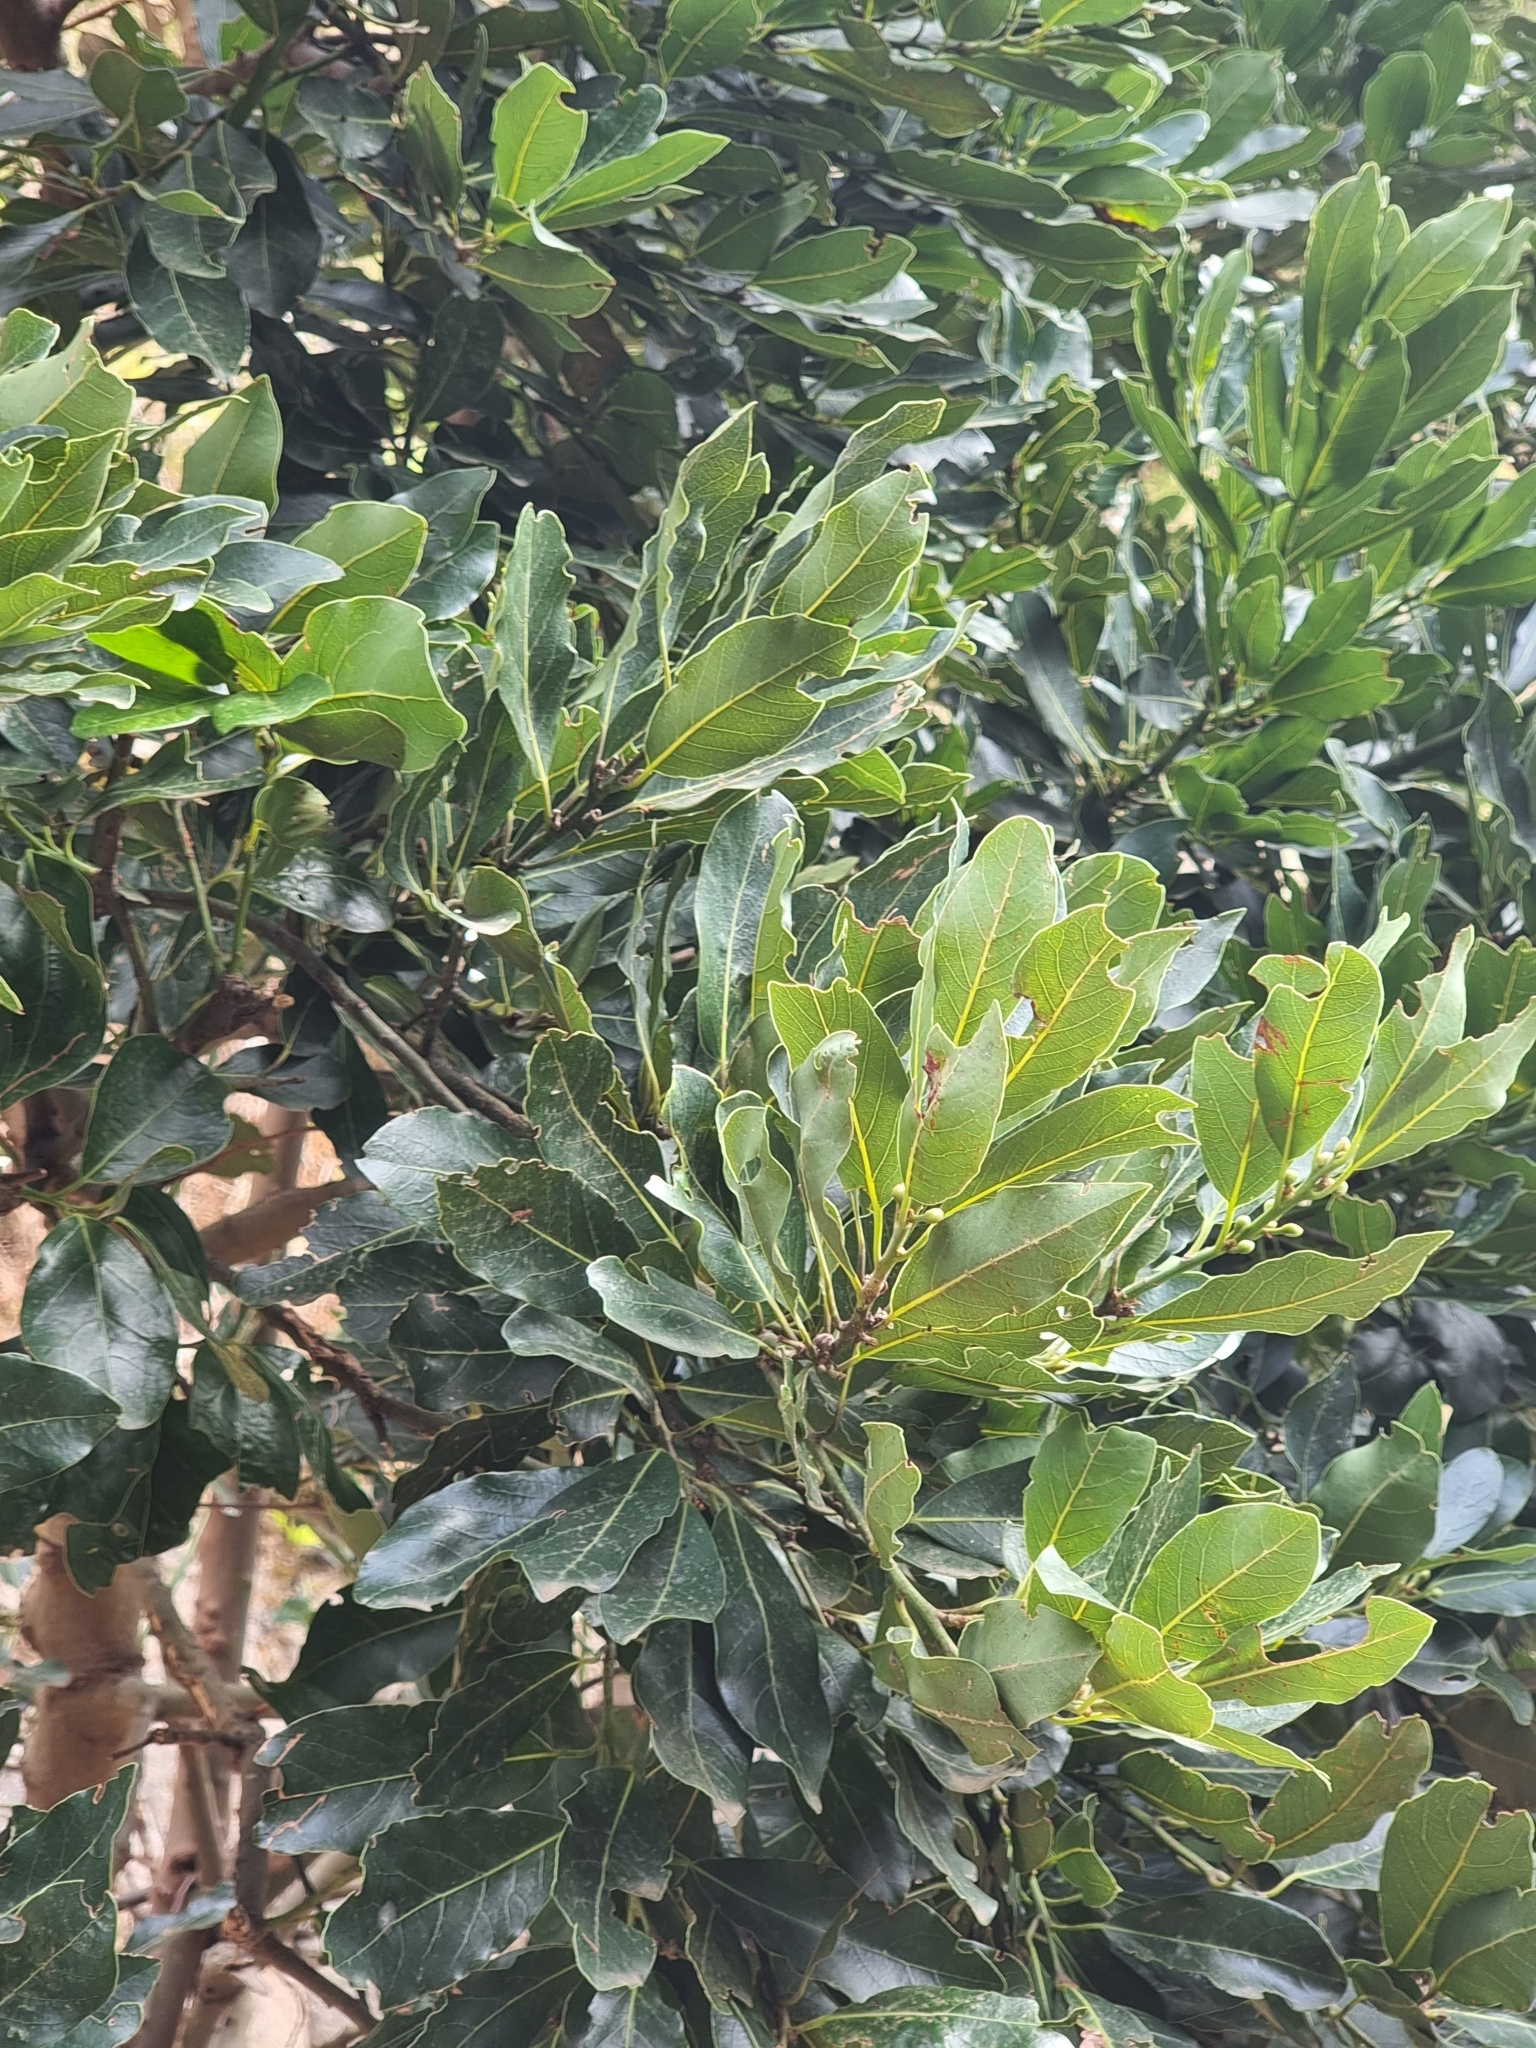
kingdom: Plantae
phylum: Tracheophyta
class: Magnoliopsida
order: Laurales
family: Lauraceae
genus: Laurus
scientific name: Laurus novocanariensis
